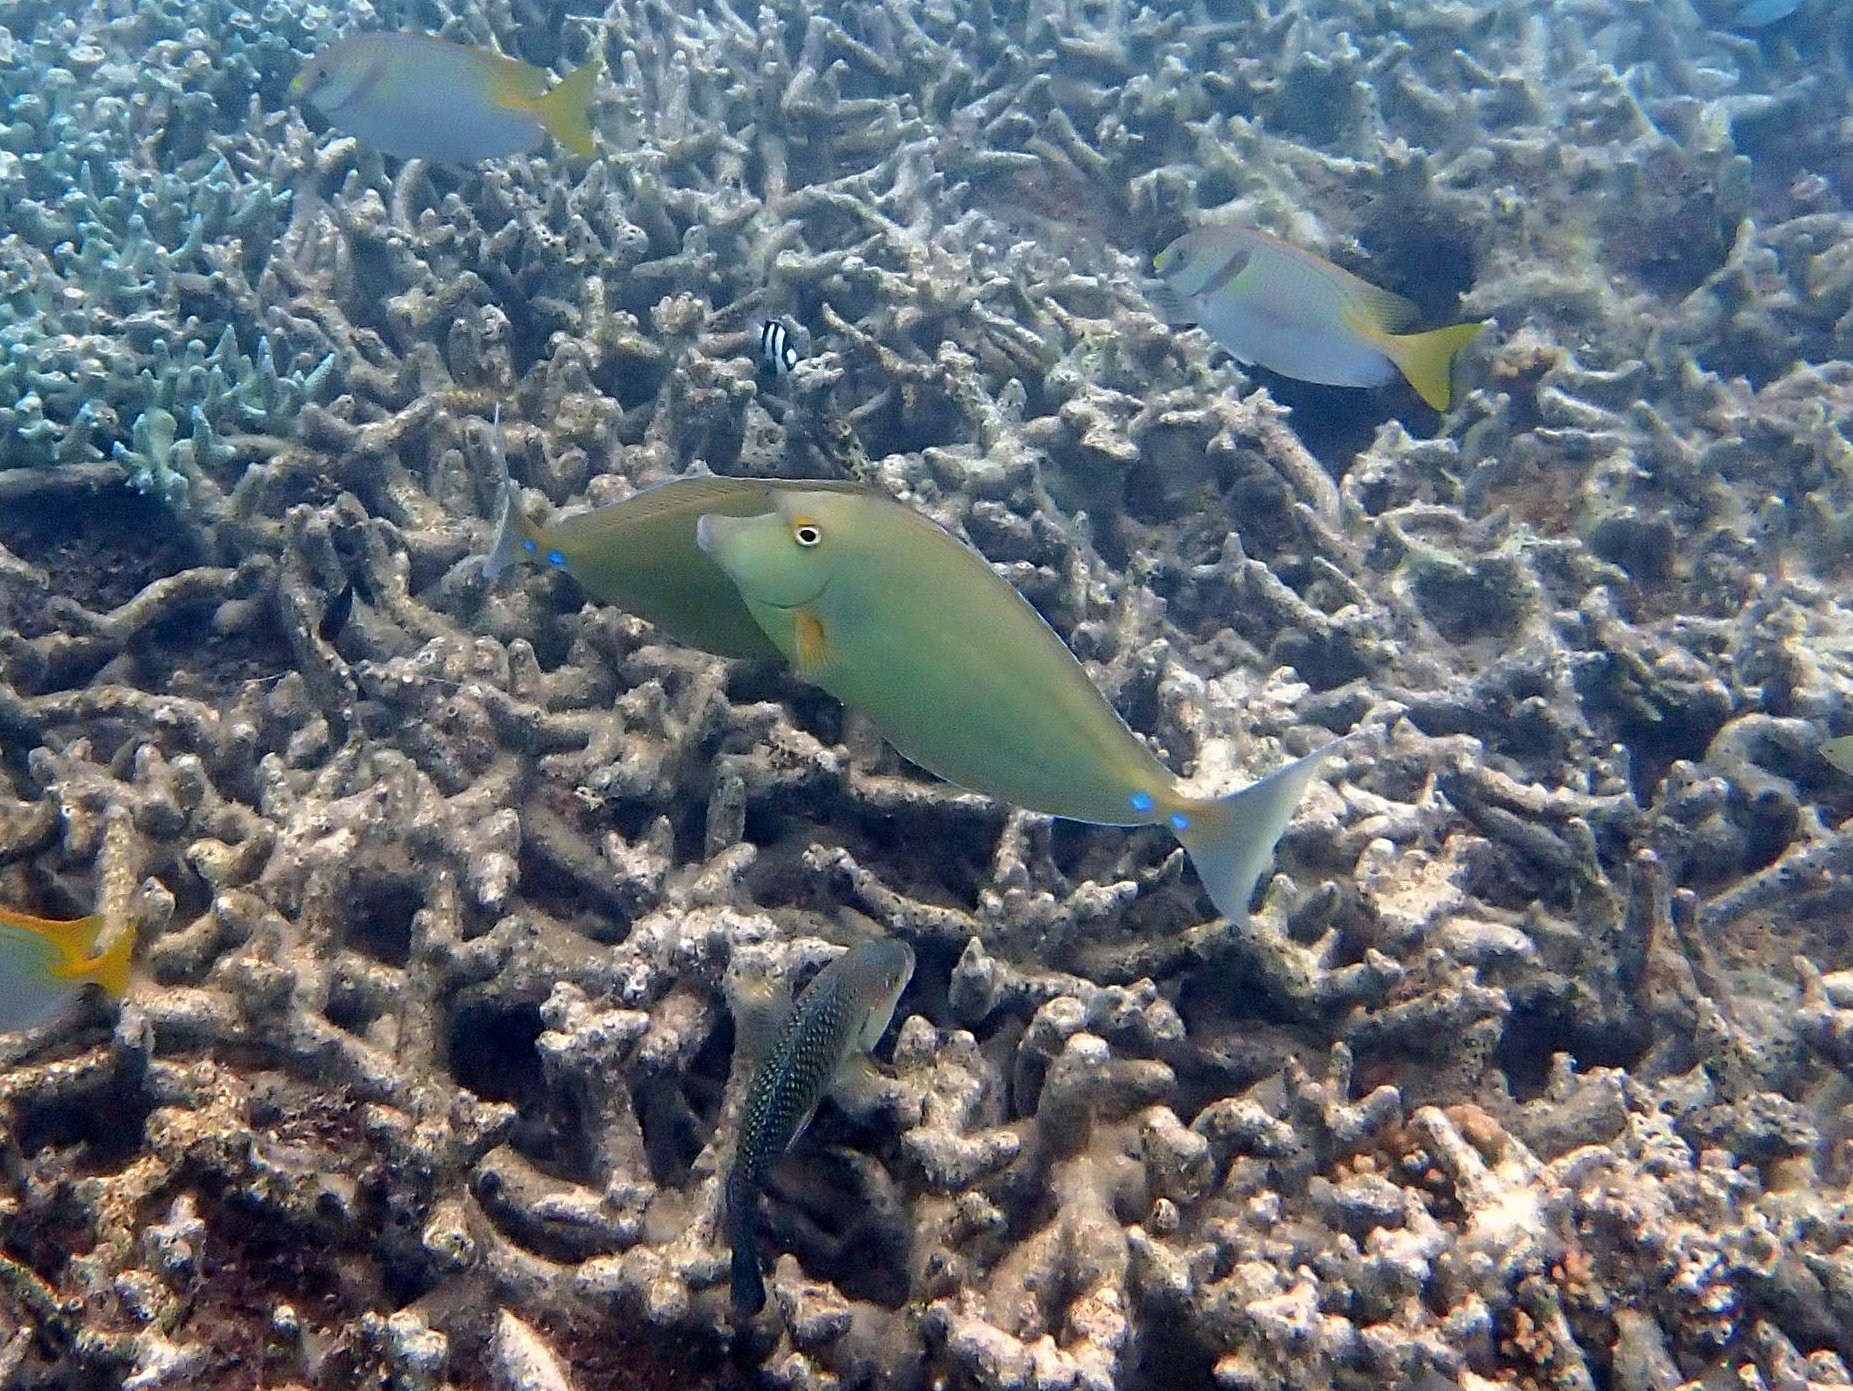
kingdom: Animalia
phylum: Chordata
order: Perciformes
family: Acanthuridae
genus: Naso
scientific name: Naso unicornis
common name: Bluespine unicornfish
